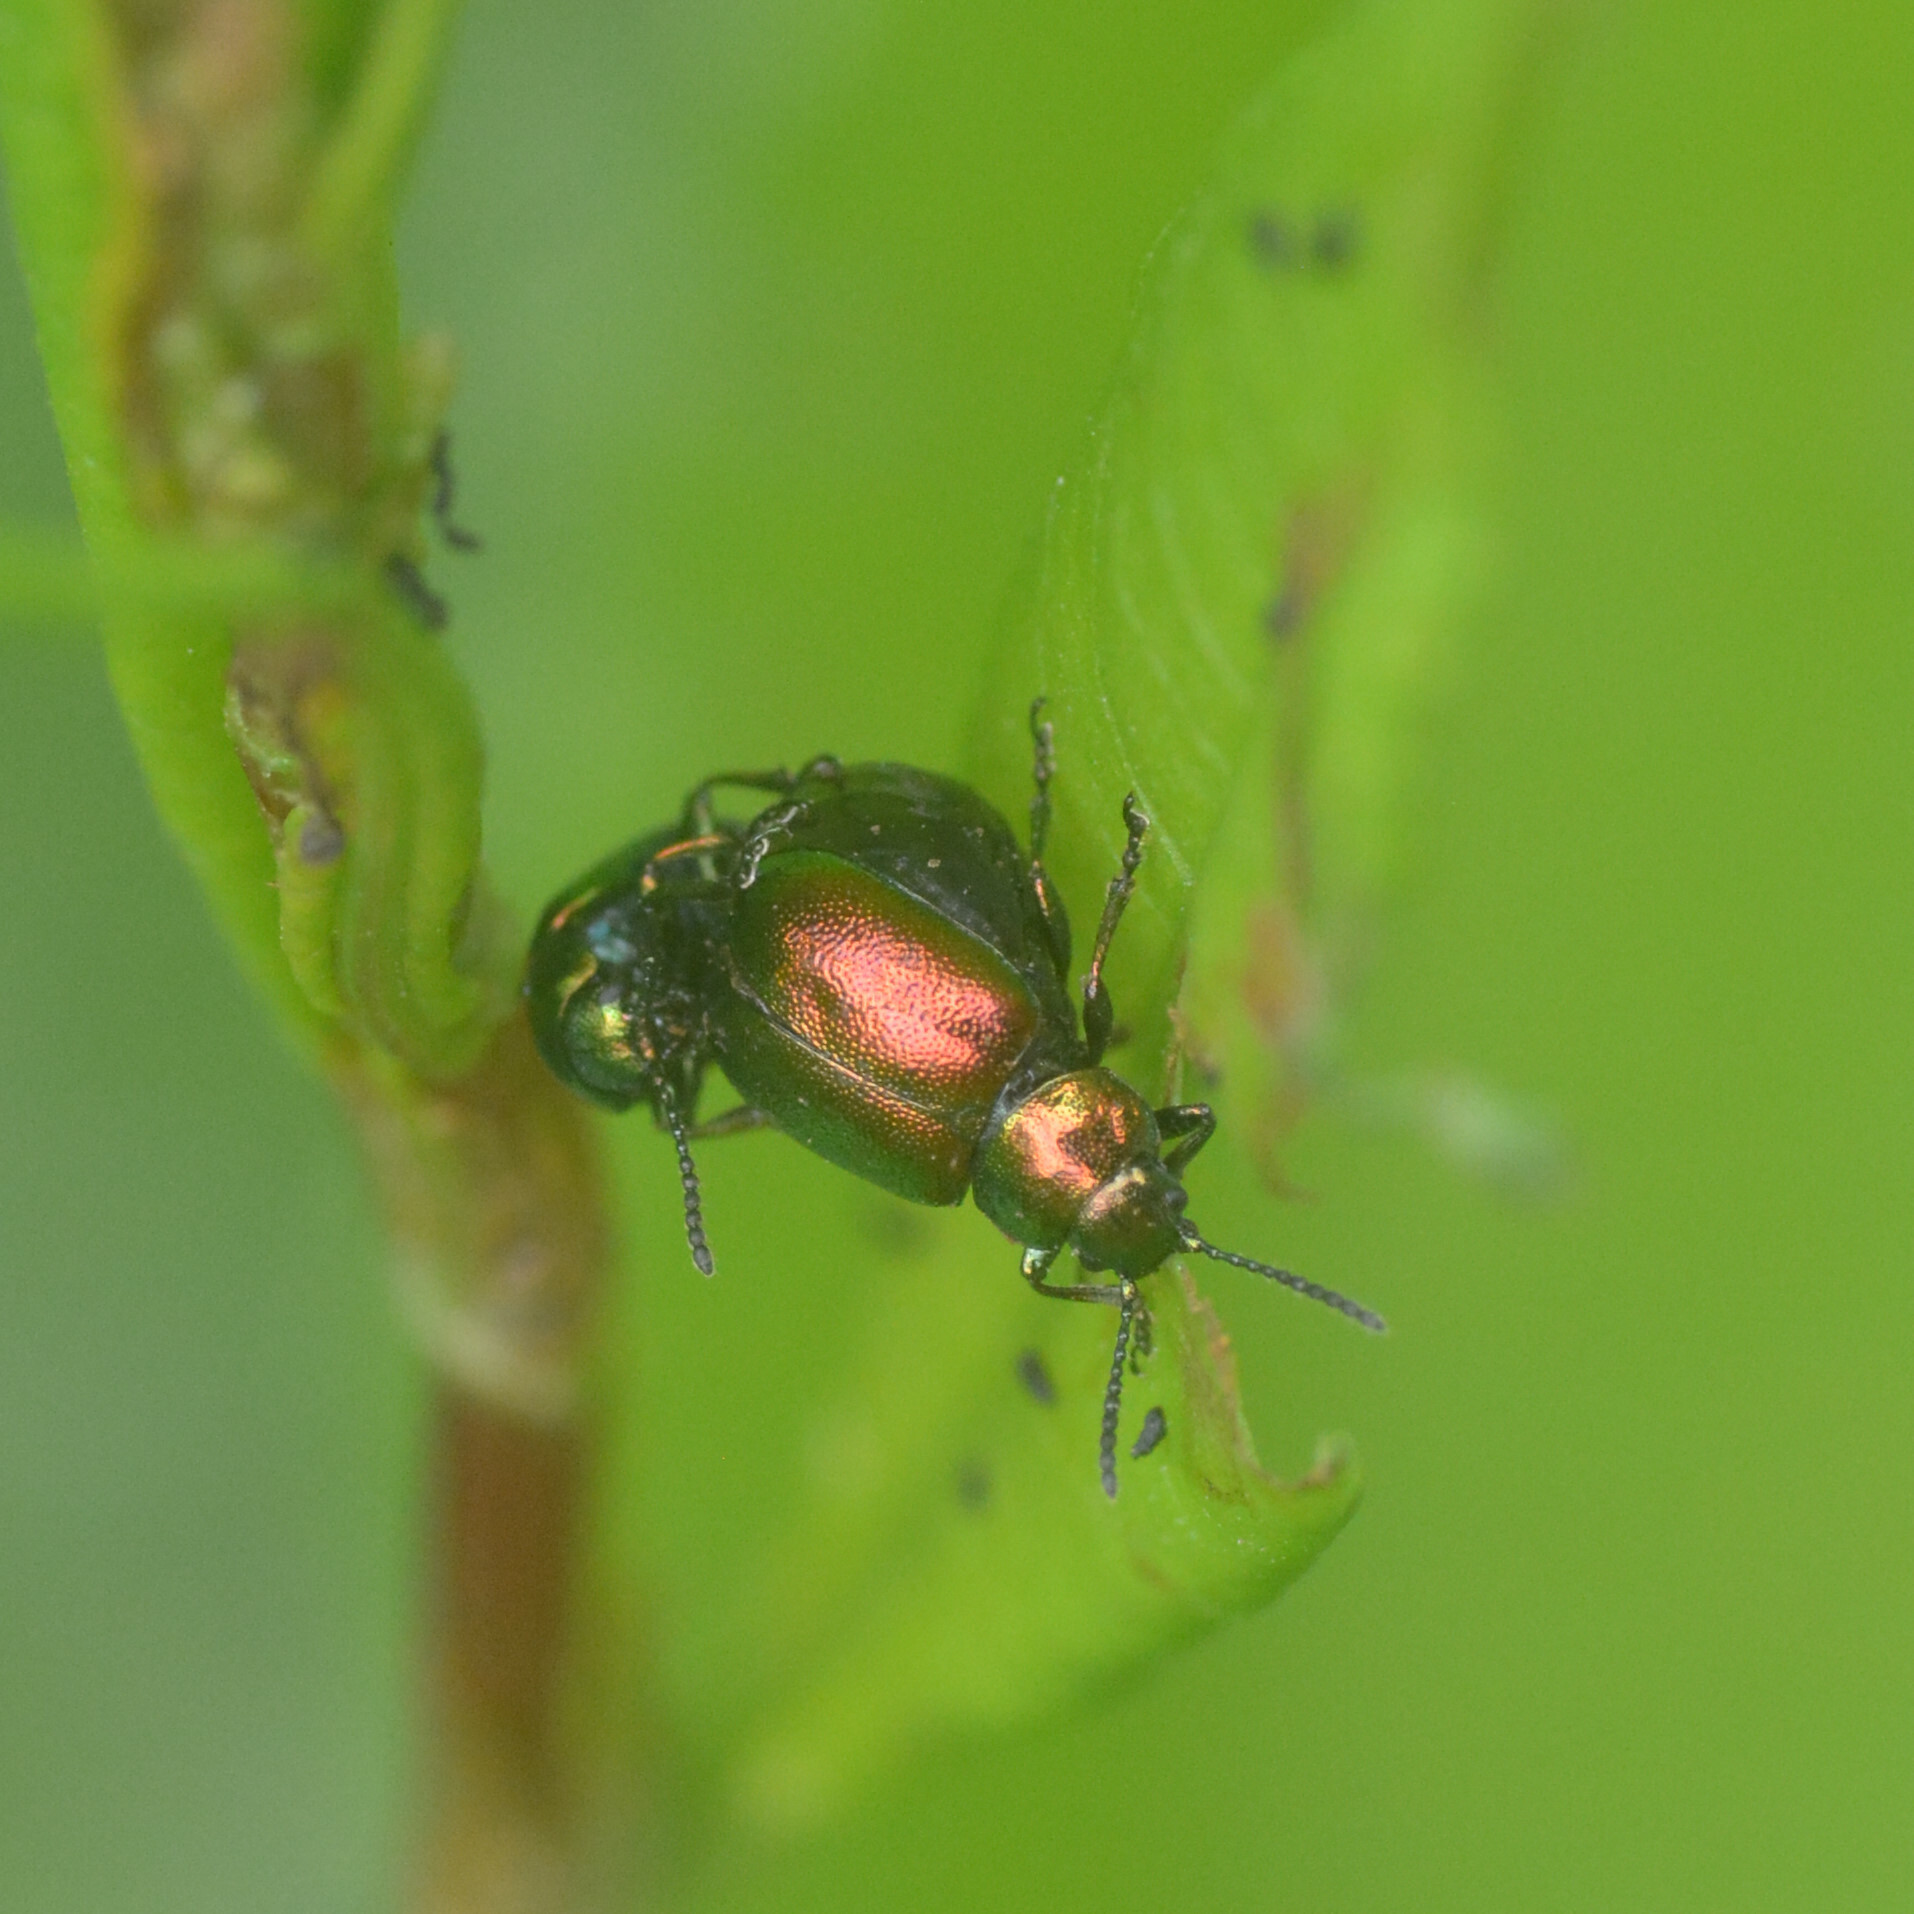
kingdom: Animalia
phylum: Arthropoda
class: Insecta
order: Coleoptera
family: Chrysomelidae
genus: Gastrophysa
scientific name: Gastrophysa viridula
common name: Green dock beetle
